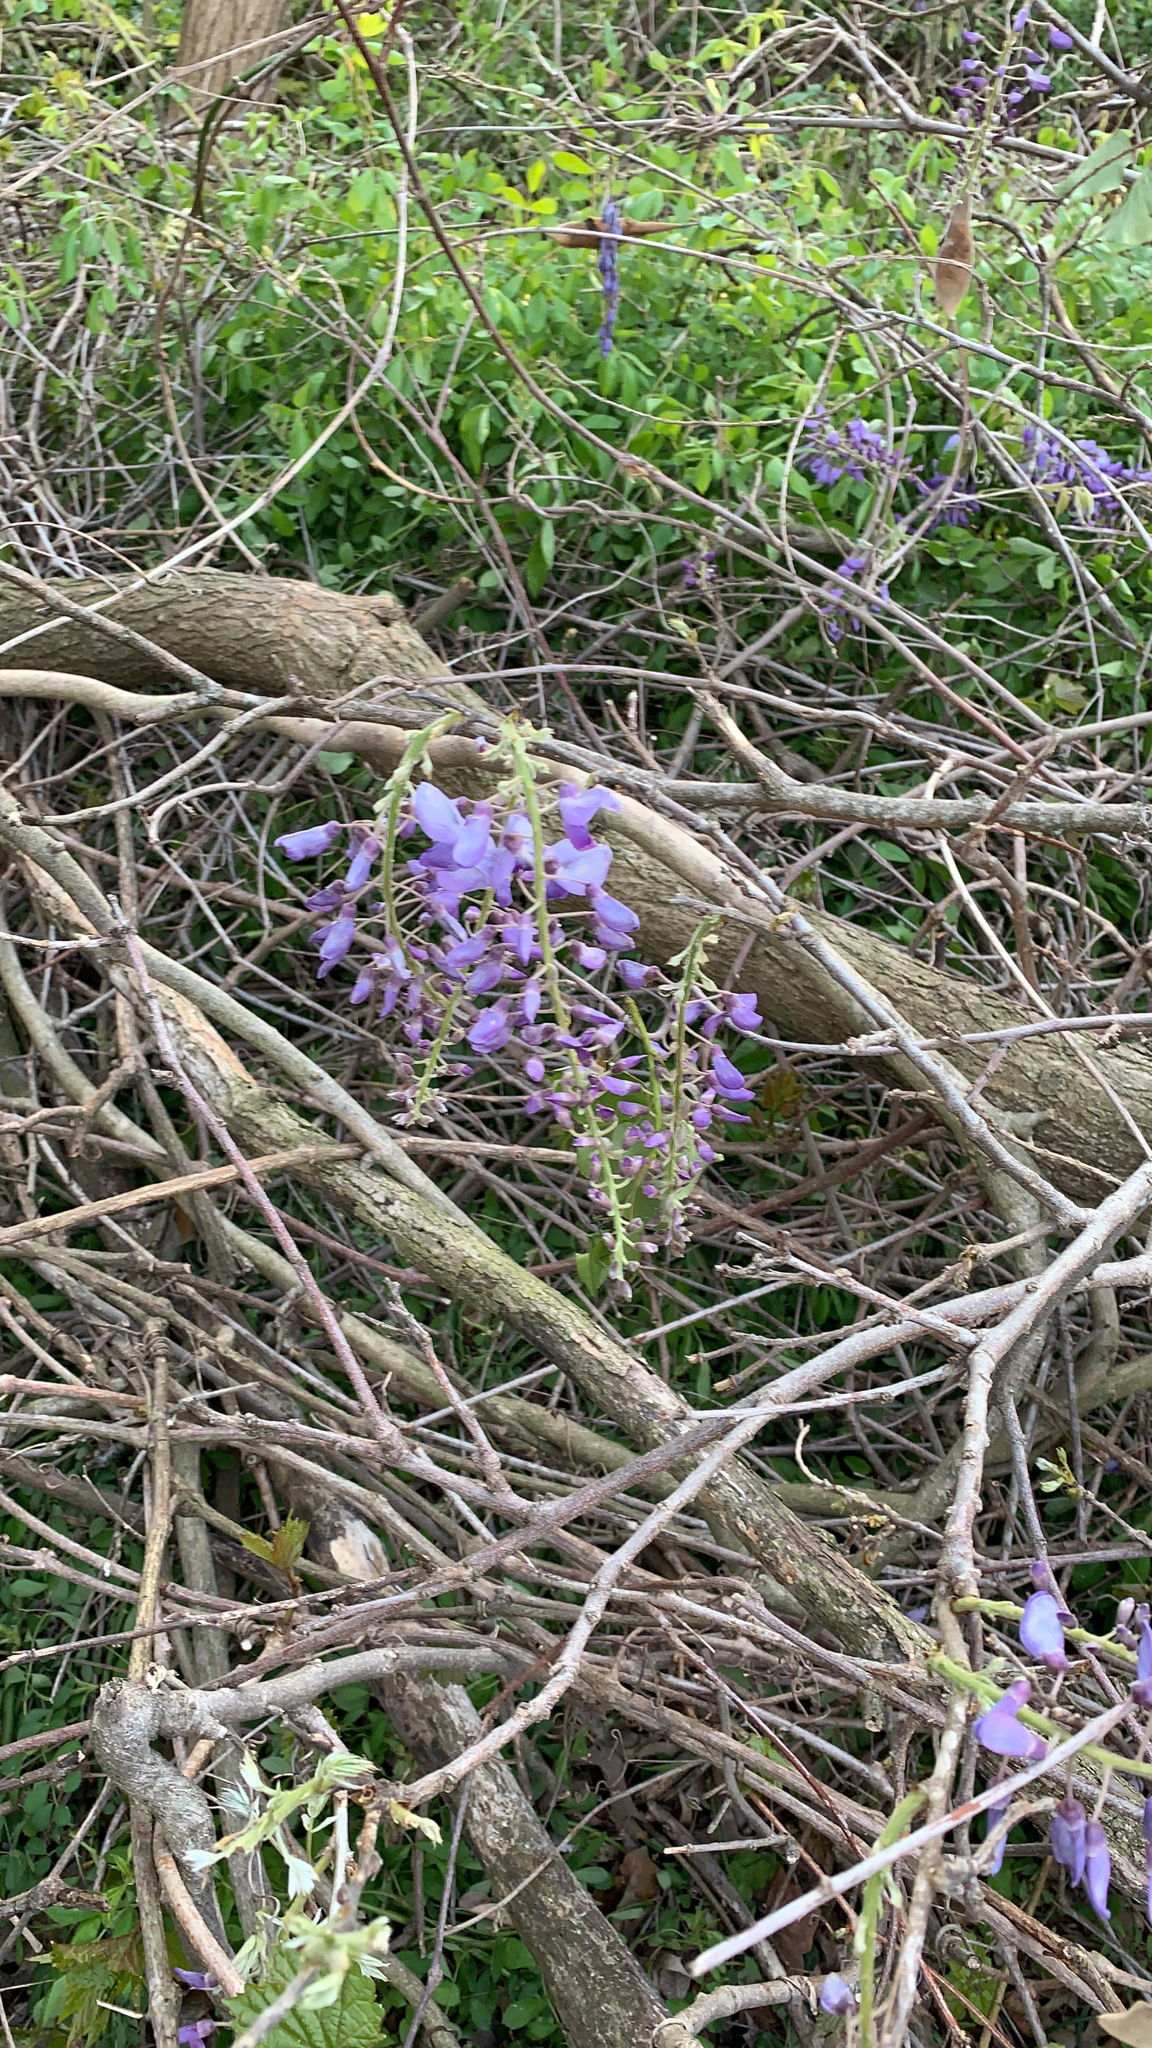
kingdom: Plantae
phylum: Tracheophyta
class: Magnoliopsida
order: Fabales
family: Fabaceae
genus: Wisteria
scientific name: Wisteria sinensis
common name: Chinese wisteria
